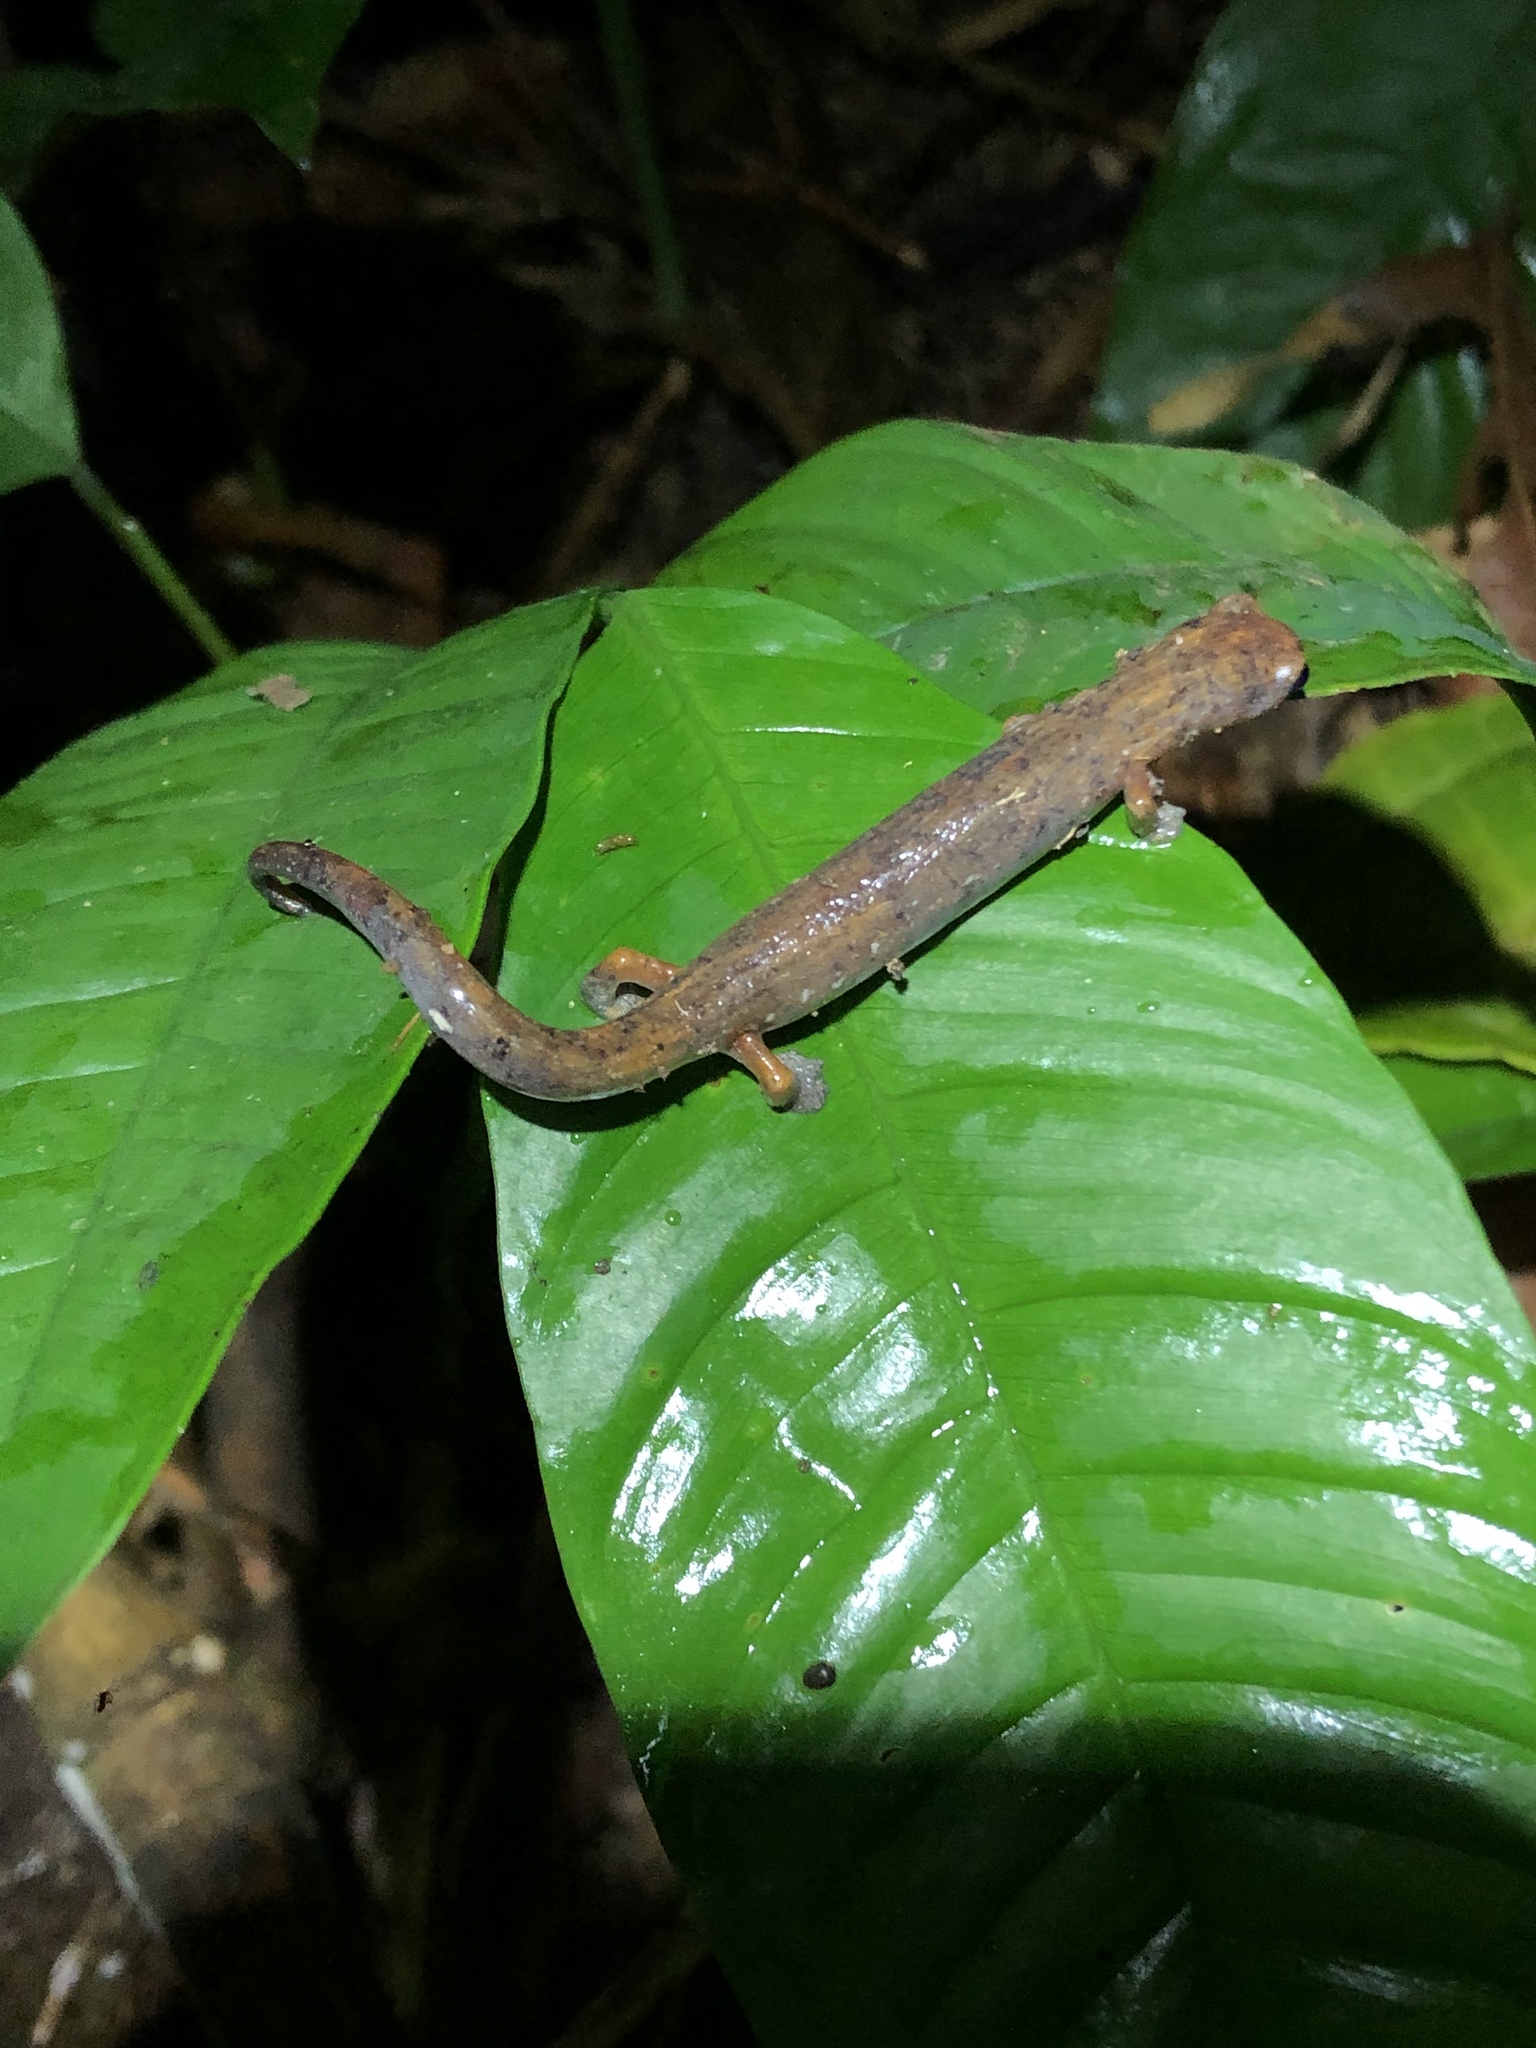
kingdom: Animalia
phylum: Chordata
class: Amphibia
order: Caudata
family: Plethodontidae
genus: Bolitoglossa
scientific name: Bolitoglossa caldwellae
